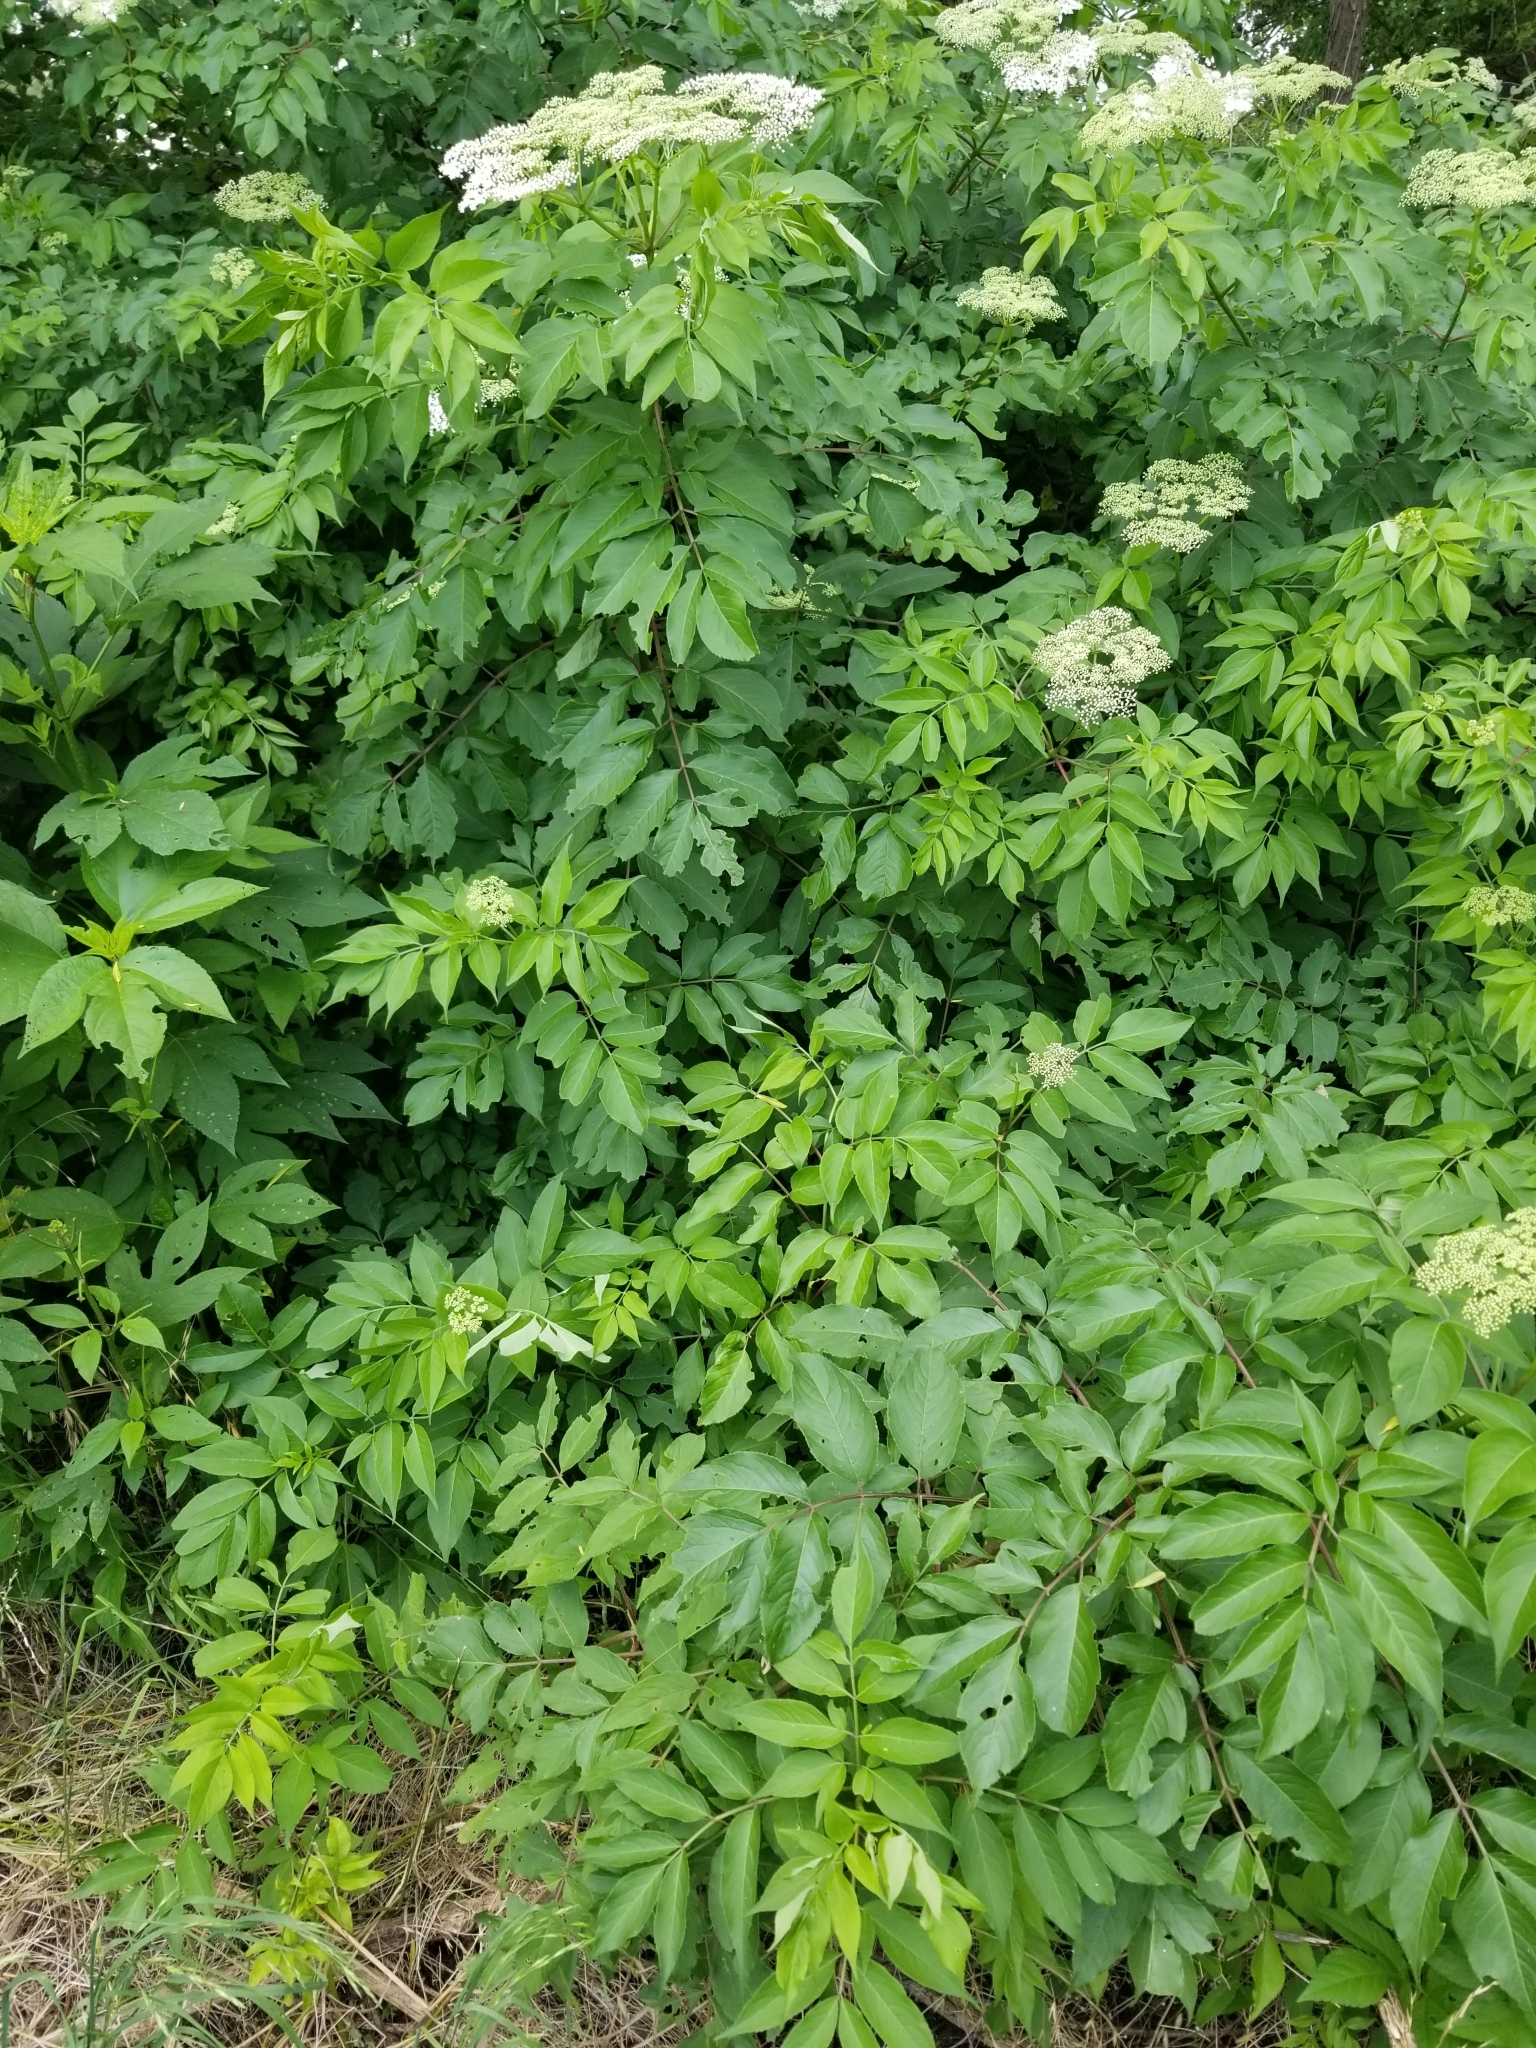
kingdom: Plantae
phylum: Tracheophyta
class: Magnoliopsida
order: Dipsacales
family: Viburnaceae
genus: Sambucus
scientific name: Sambucus canadensis
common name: American elder
